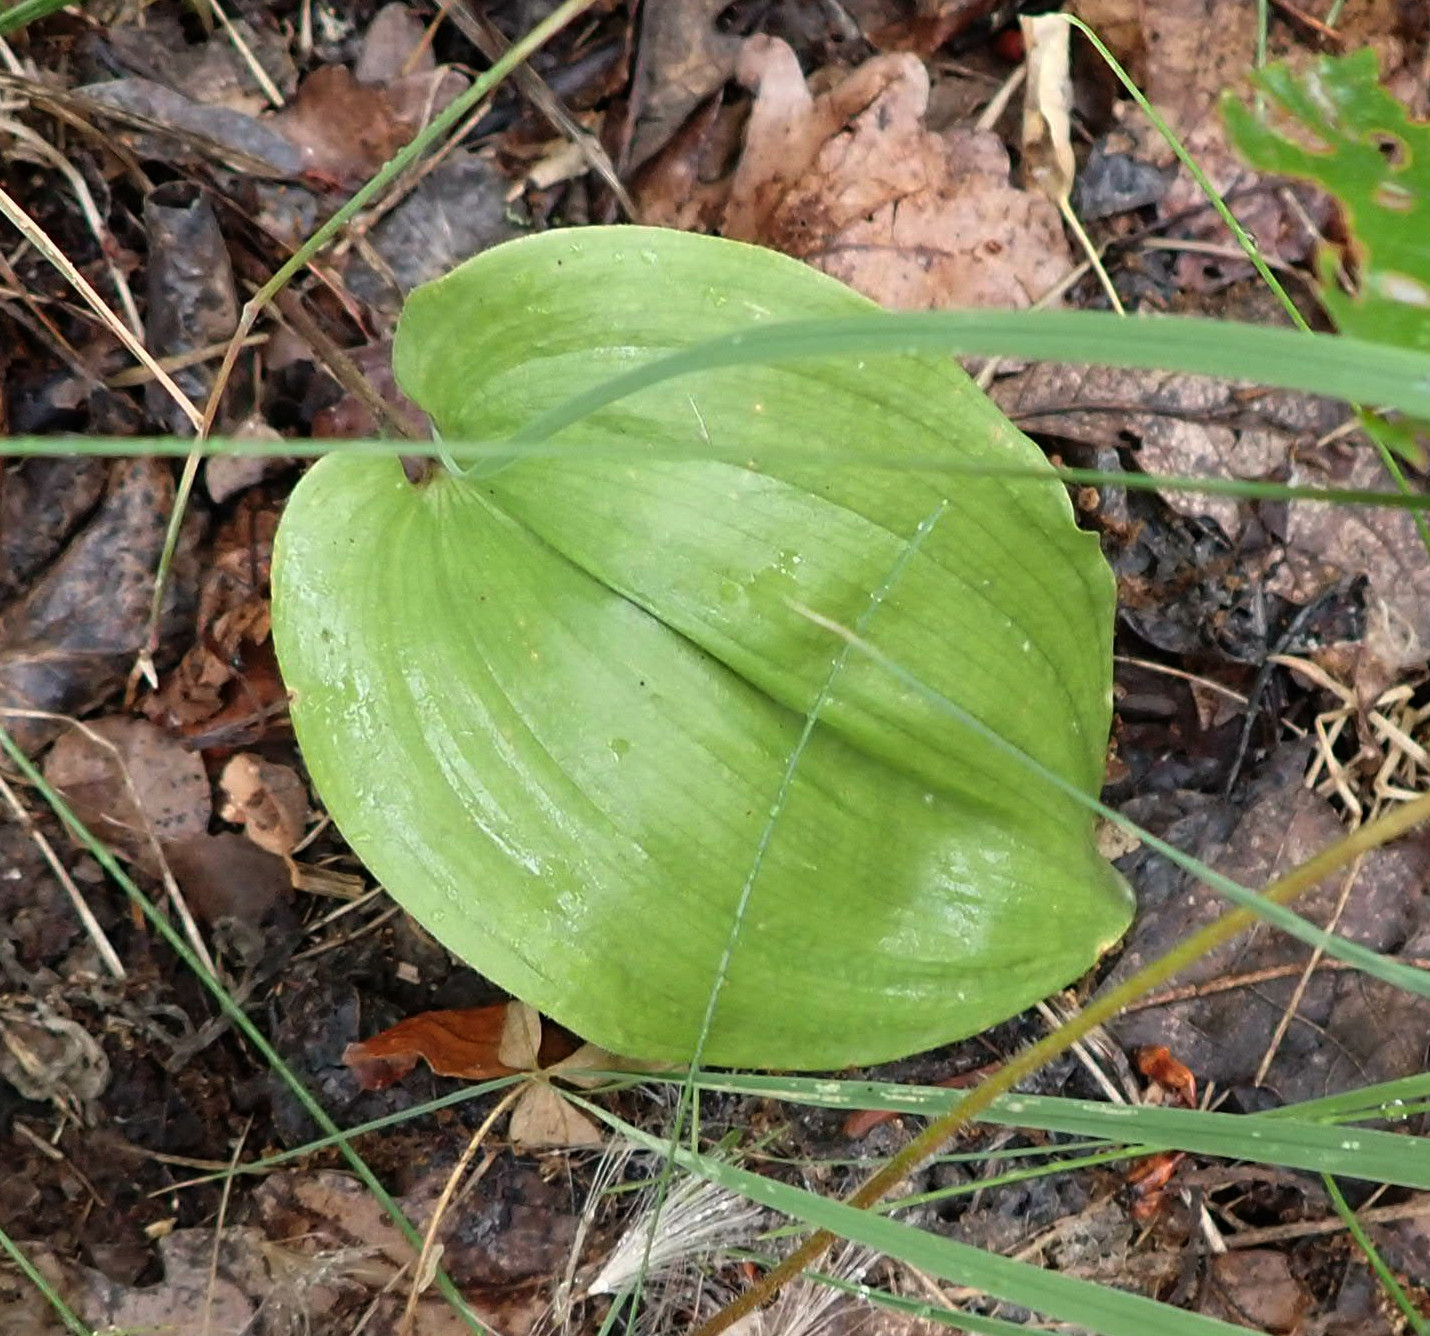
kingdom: Plantae
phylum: Tracheophyta
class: Liliopsida
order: Asparagales
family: Asparagaceae
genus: Maianthemum
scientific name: Maianthemum canadense
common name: False lily-of-the-valley
